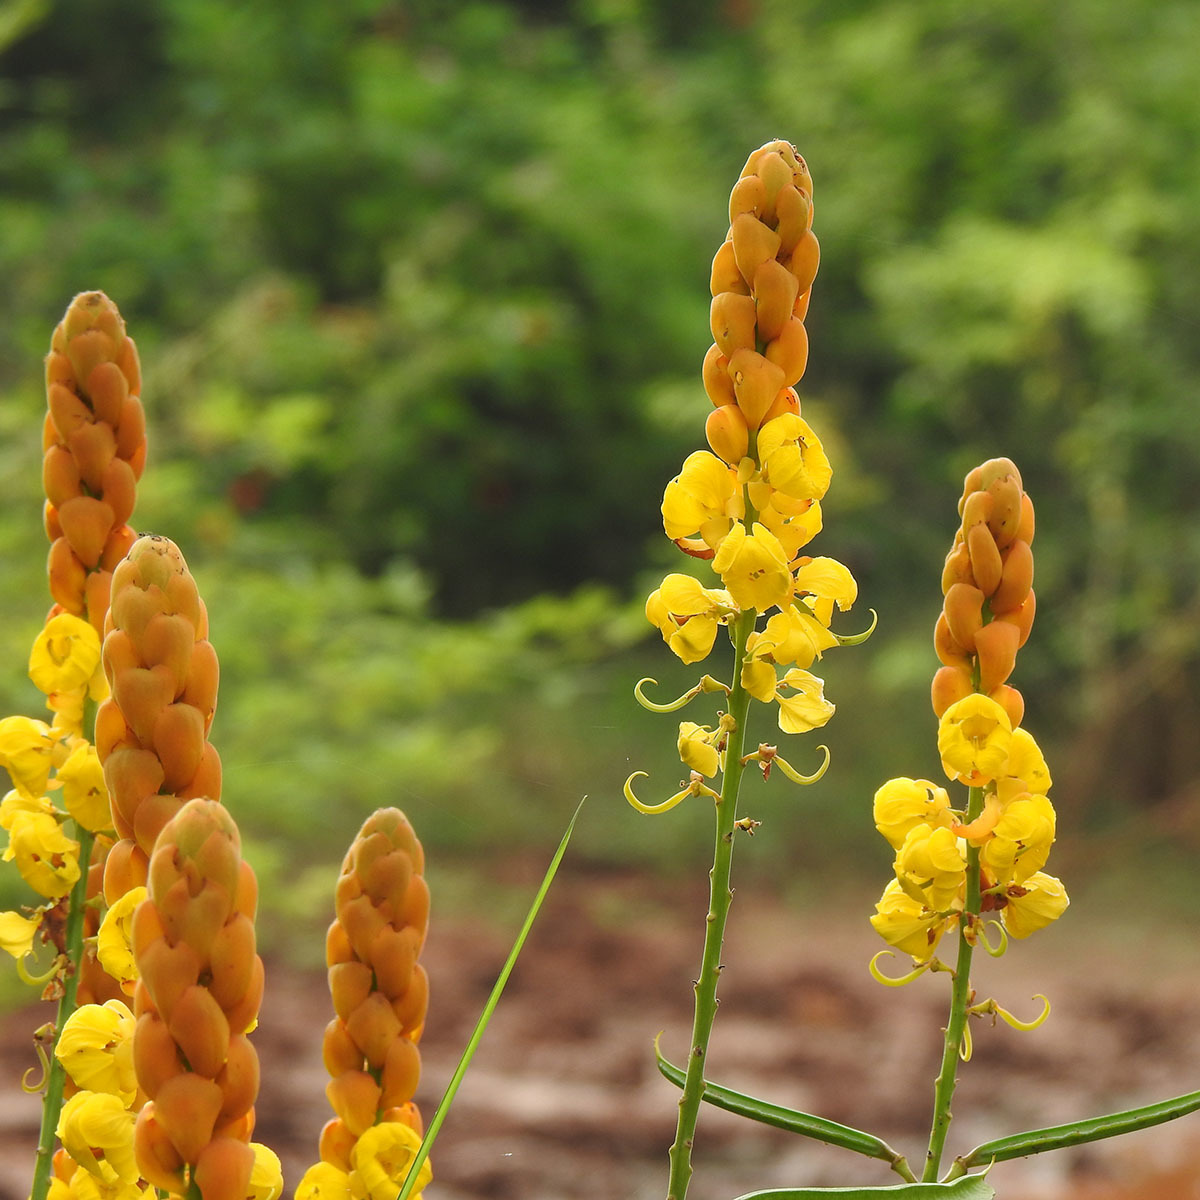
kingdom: Plantae
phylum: Tracheophyta
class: Magnoliopsida
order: Fabales
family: Fabaceae
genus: Senna
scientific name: Senna alata
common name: Emperor's candlesticks
